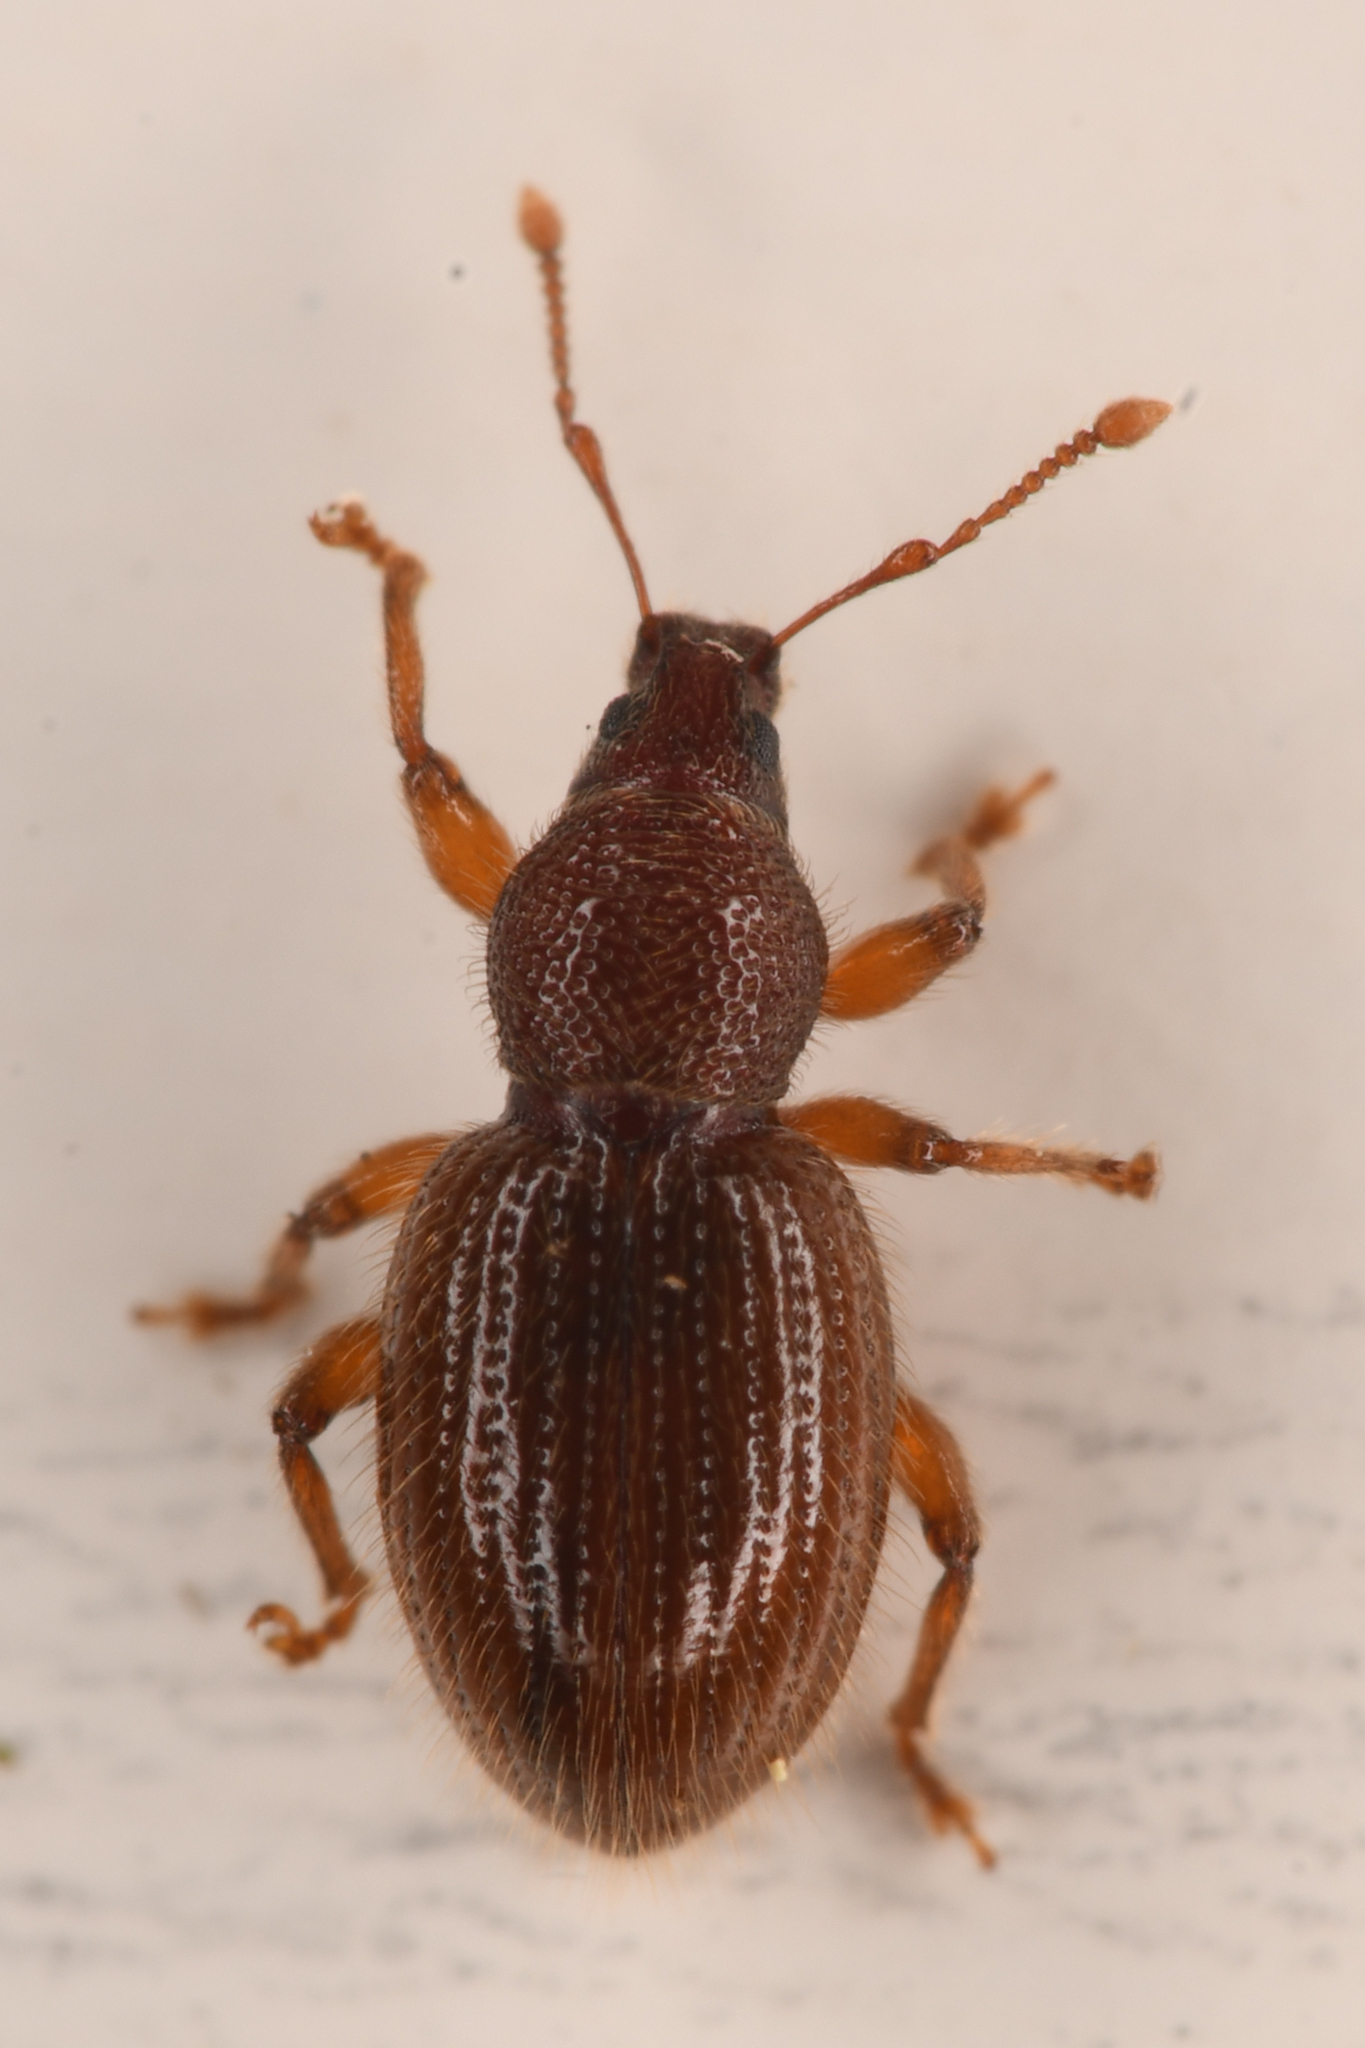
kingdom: Animalia
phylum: Arthropoda
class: Insecta
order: Coleoptera
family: Curculionidae
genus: Exomias
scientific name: Exomias pellucidus
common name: Hairy spider weevil
